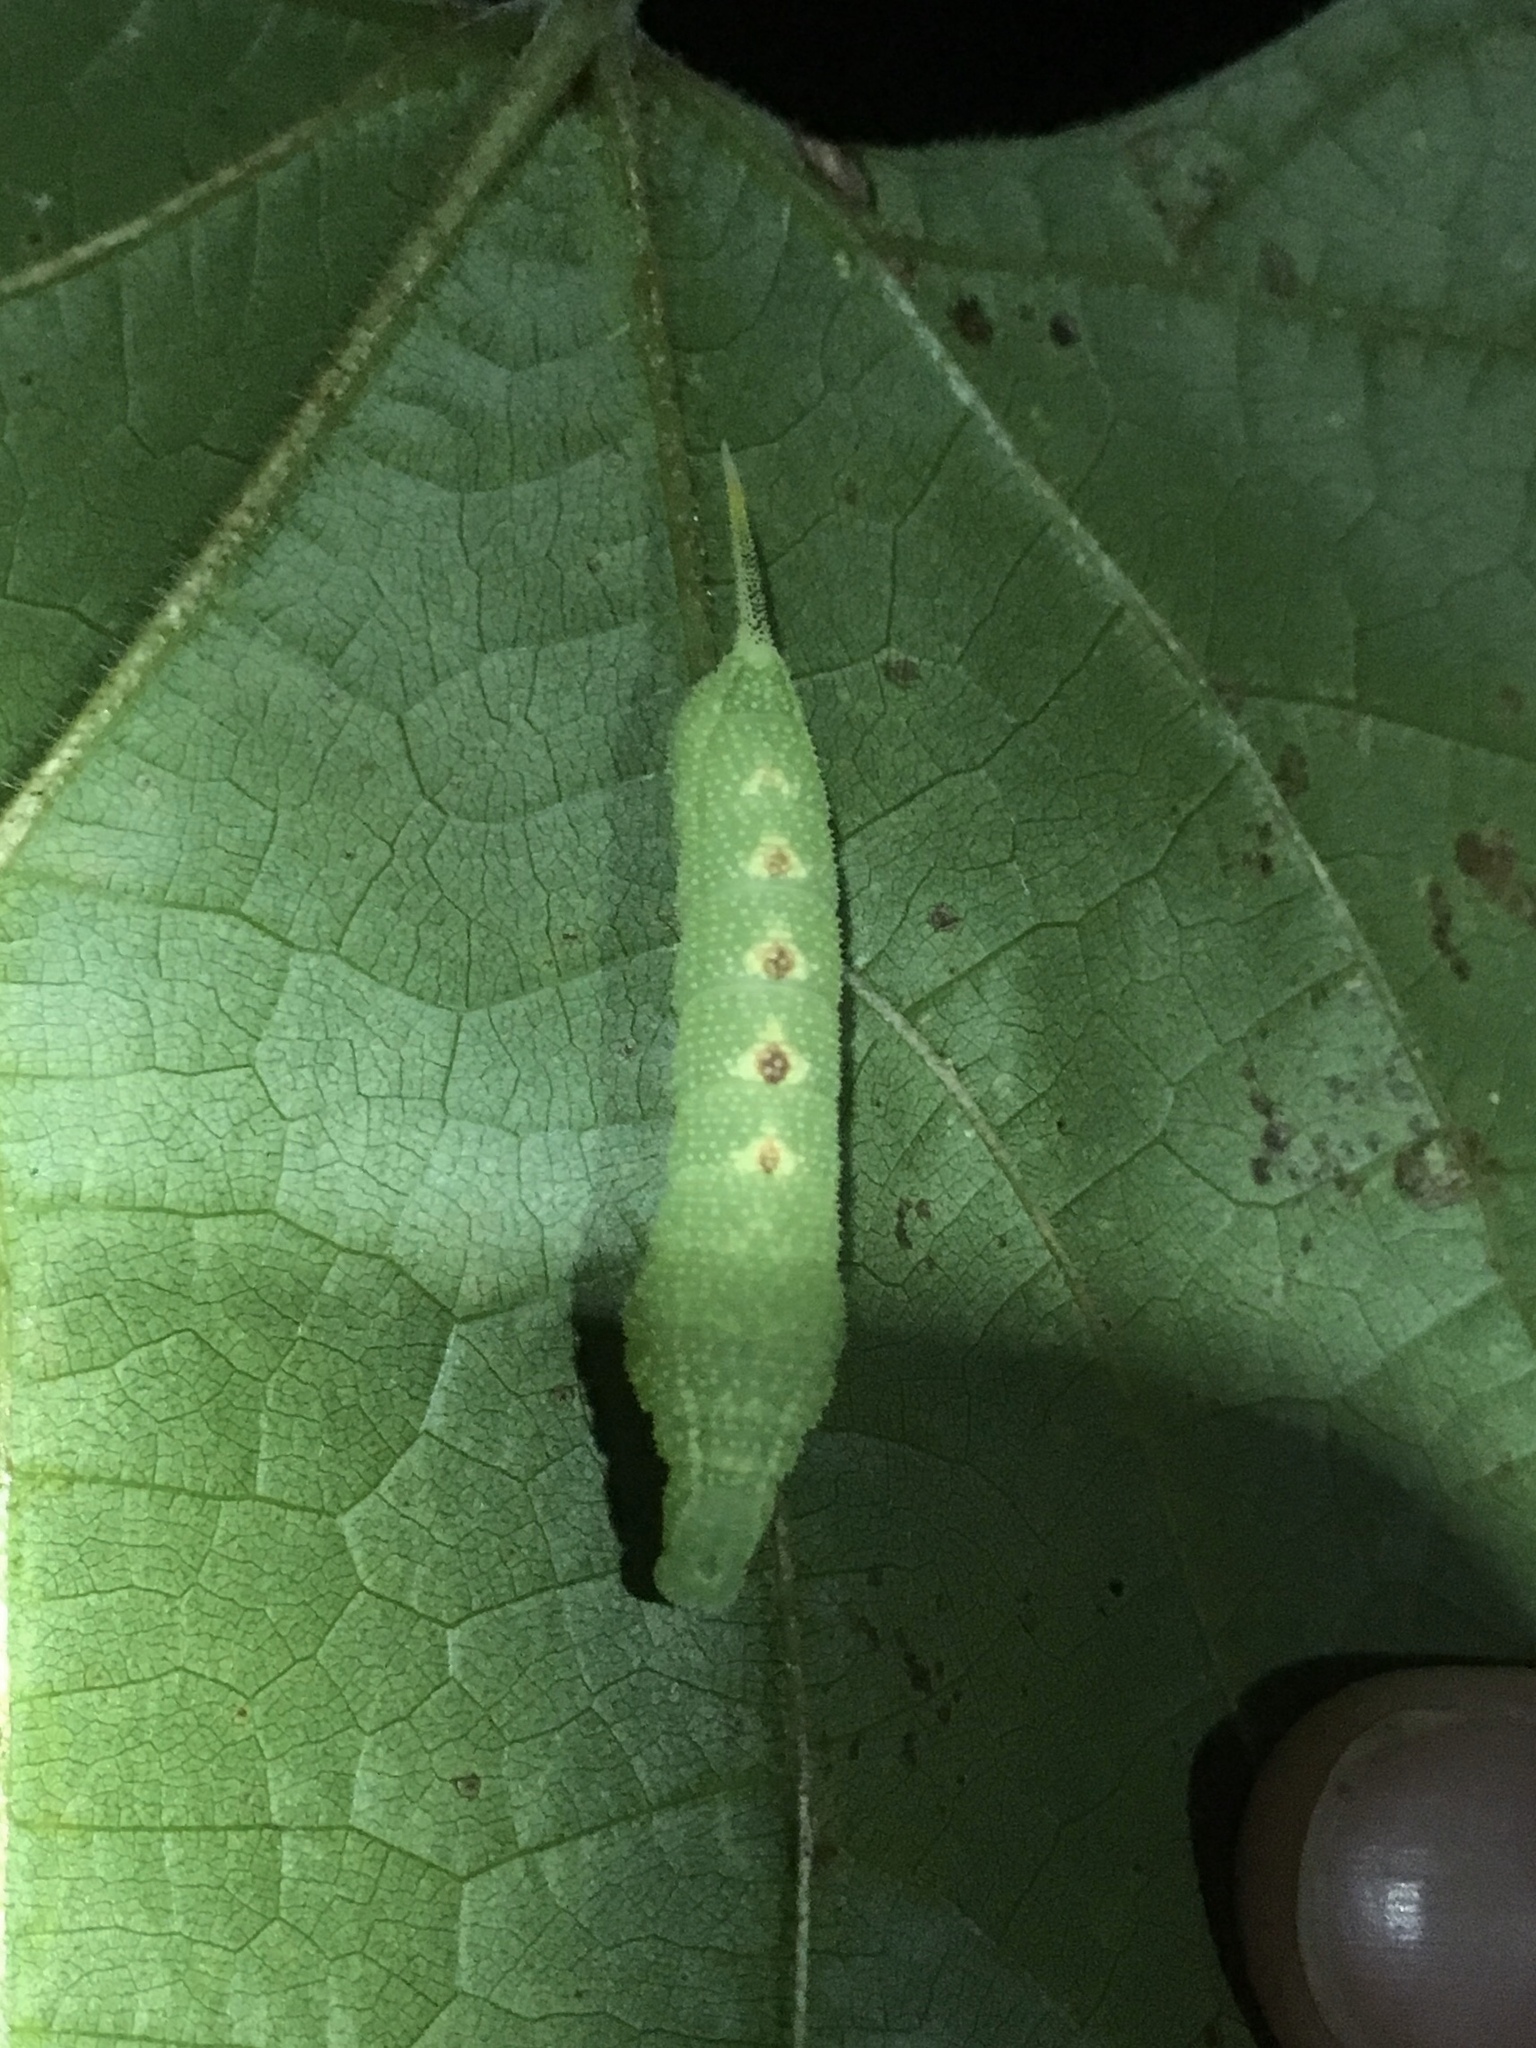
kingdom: Animalia
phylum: Arthropoda
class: Insecta
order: Lepidoptera
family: Sphingidae
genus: Darapsa
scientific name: Darapsa myron
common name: Hog sphinx
